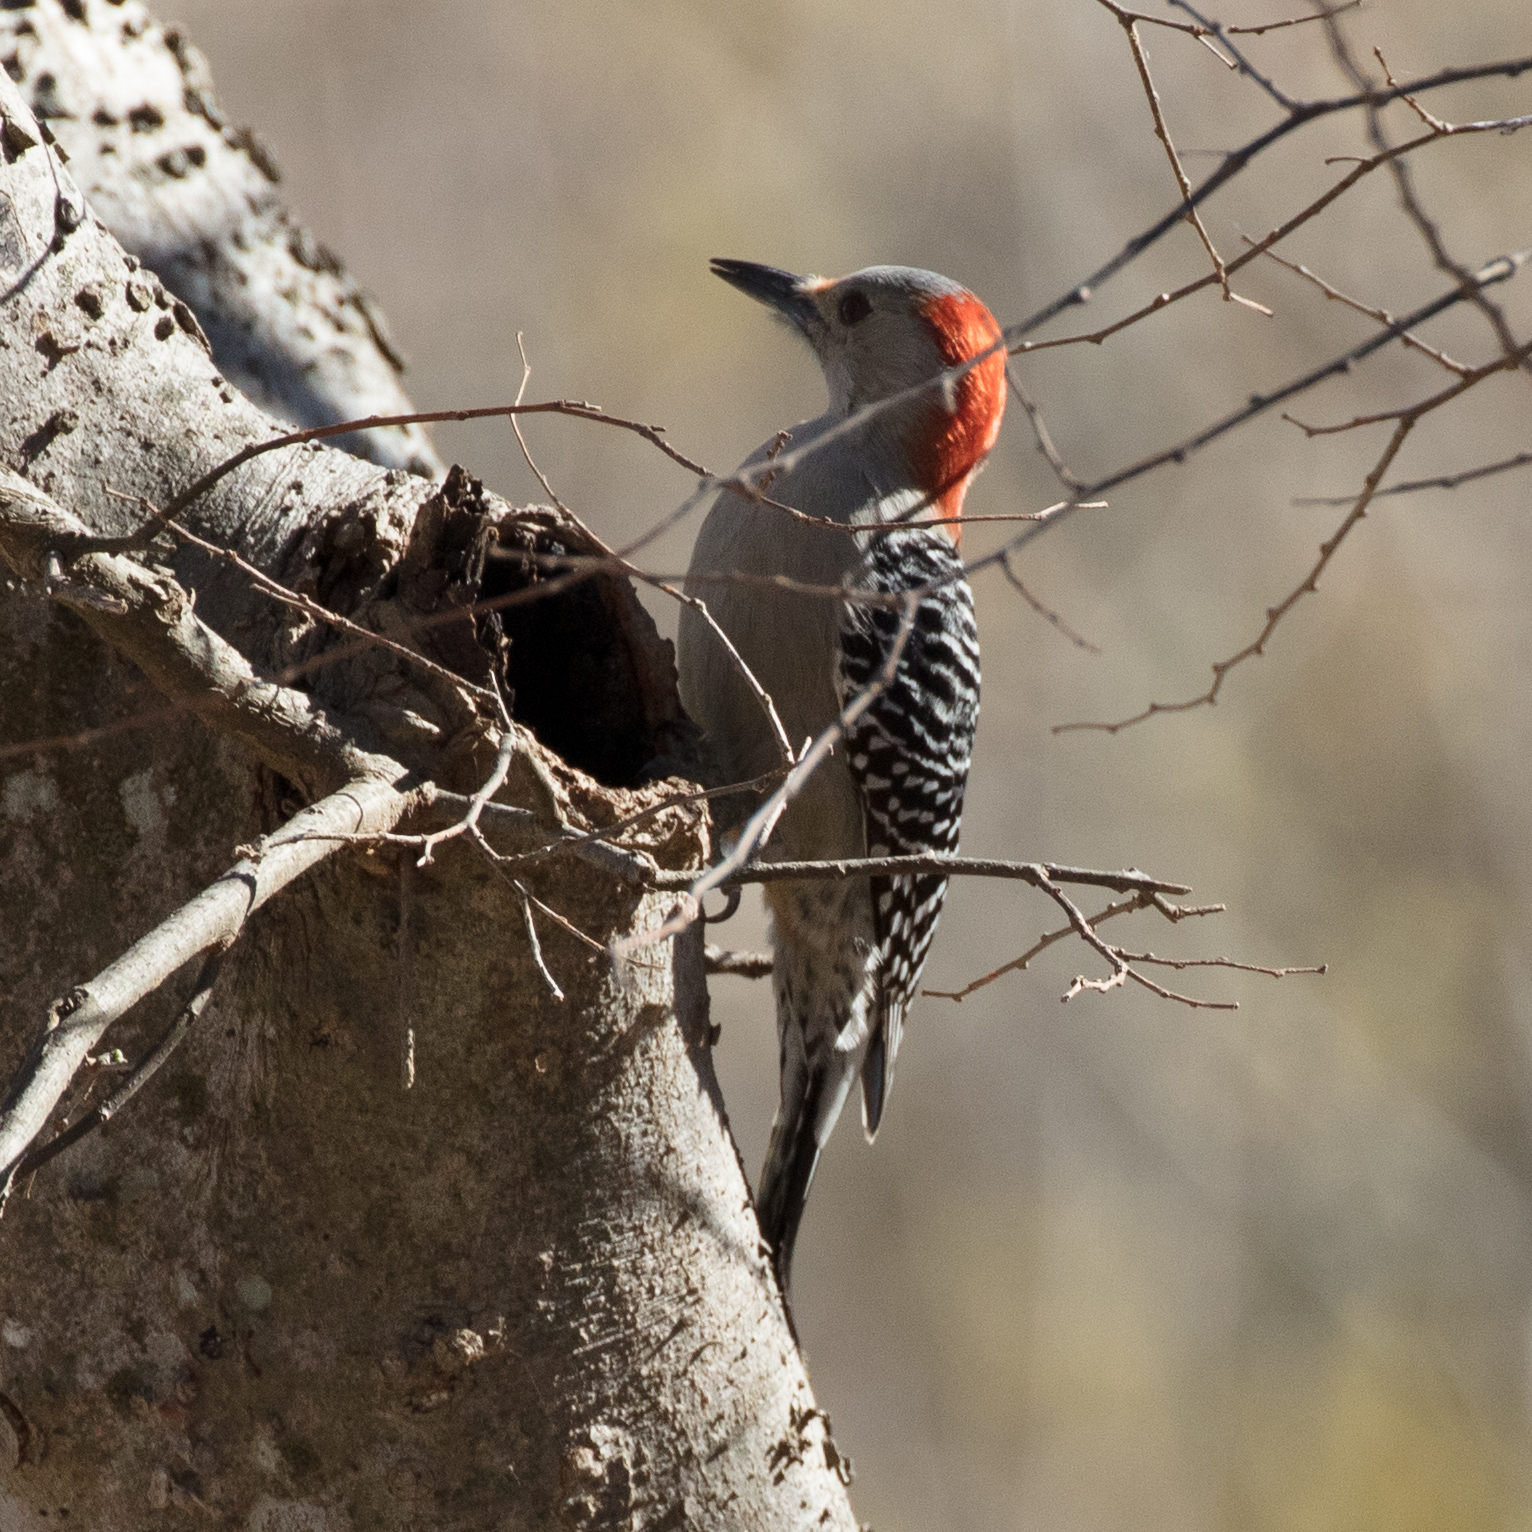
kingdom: Animalia
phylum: Chordata
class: Aves
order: Piciformes
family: Picidae
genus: Melanerpes
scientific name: Melanerpes carolinus
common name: Red-bellied woodpecker
